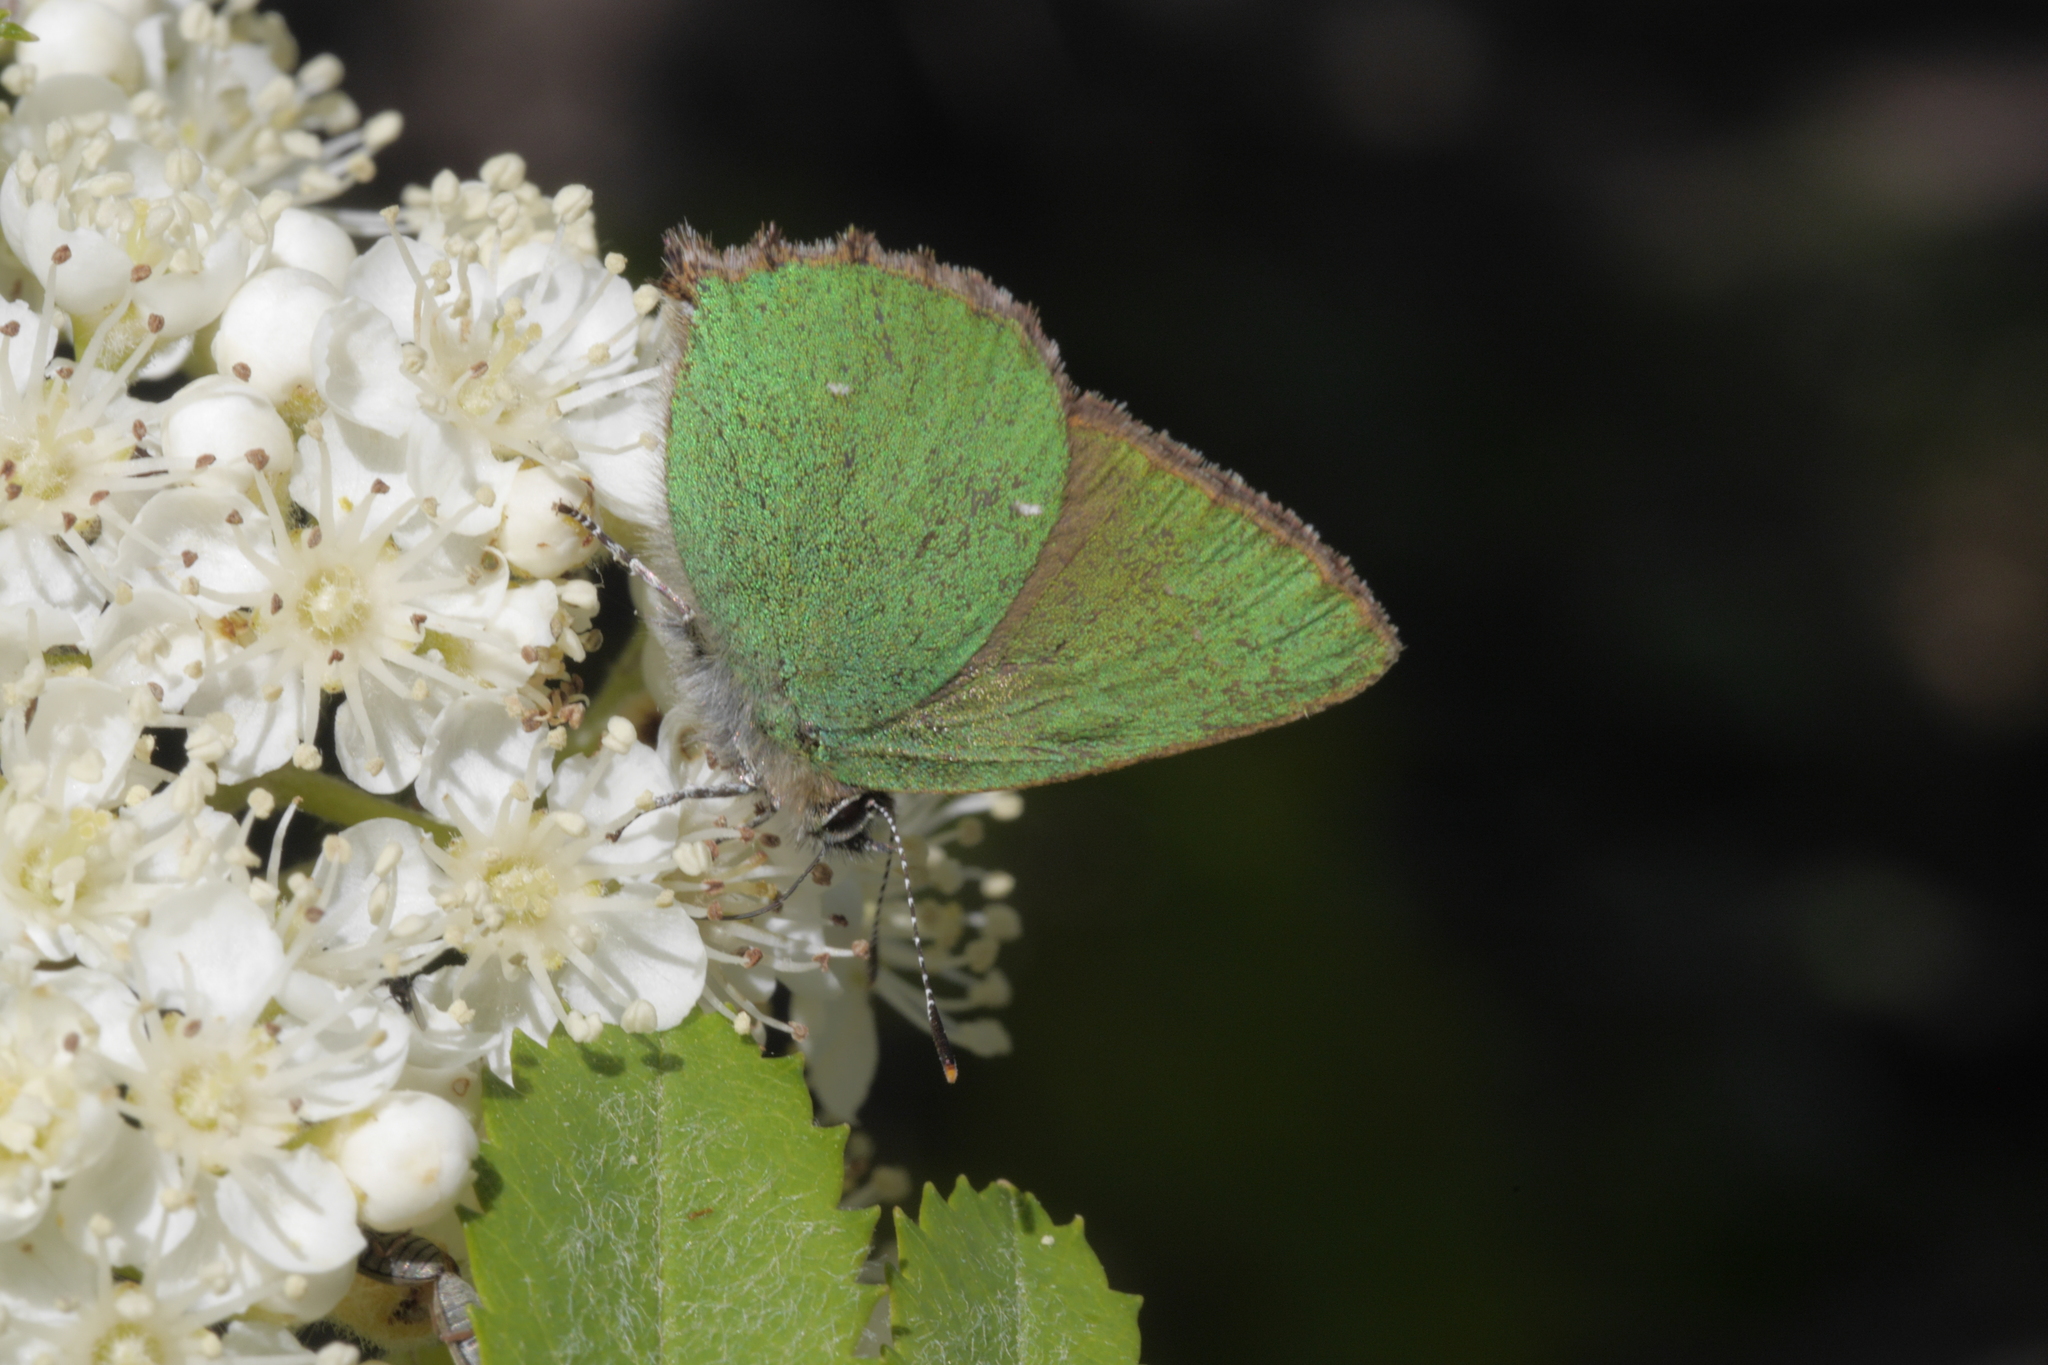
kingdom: Animalia
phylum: Arthropoda
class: Insecta
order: Lepidoptera
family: Lycaenidae
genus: Callophrys
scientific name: Callophrys rubi
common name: Green hairstreak
